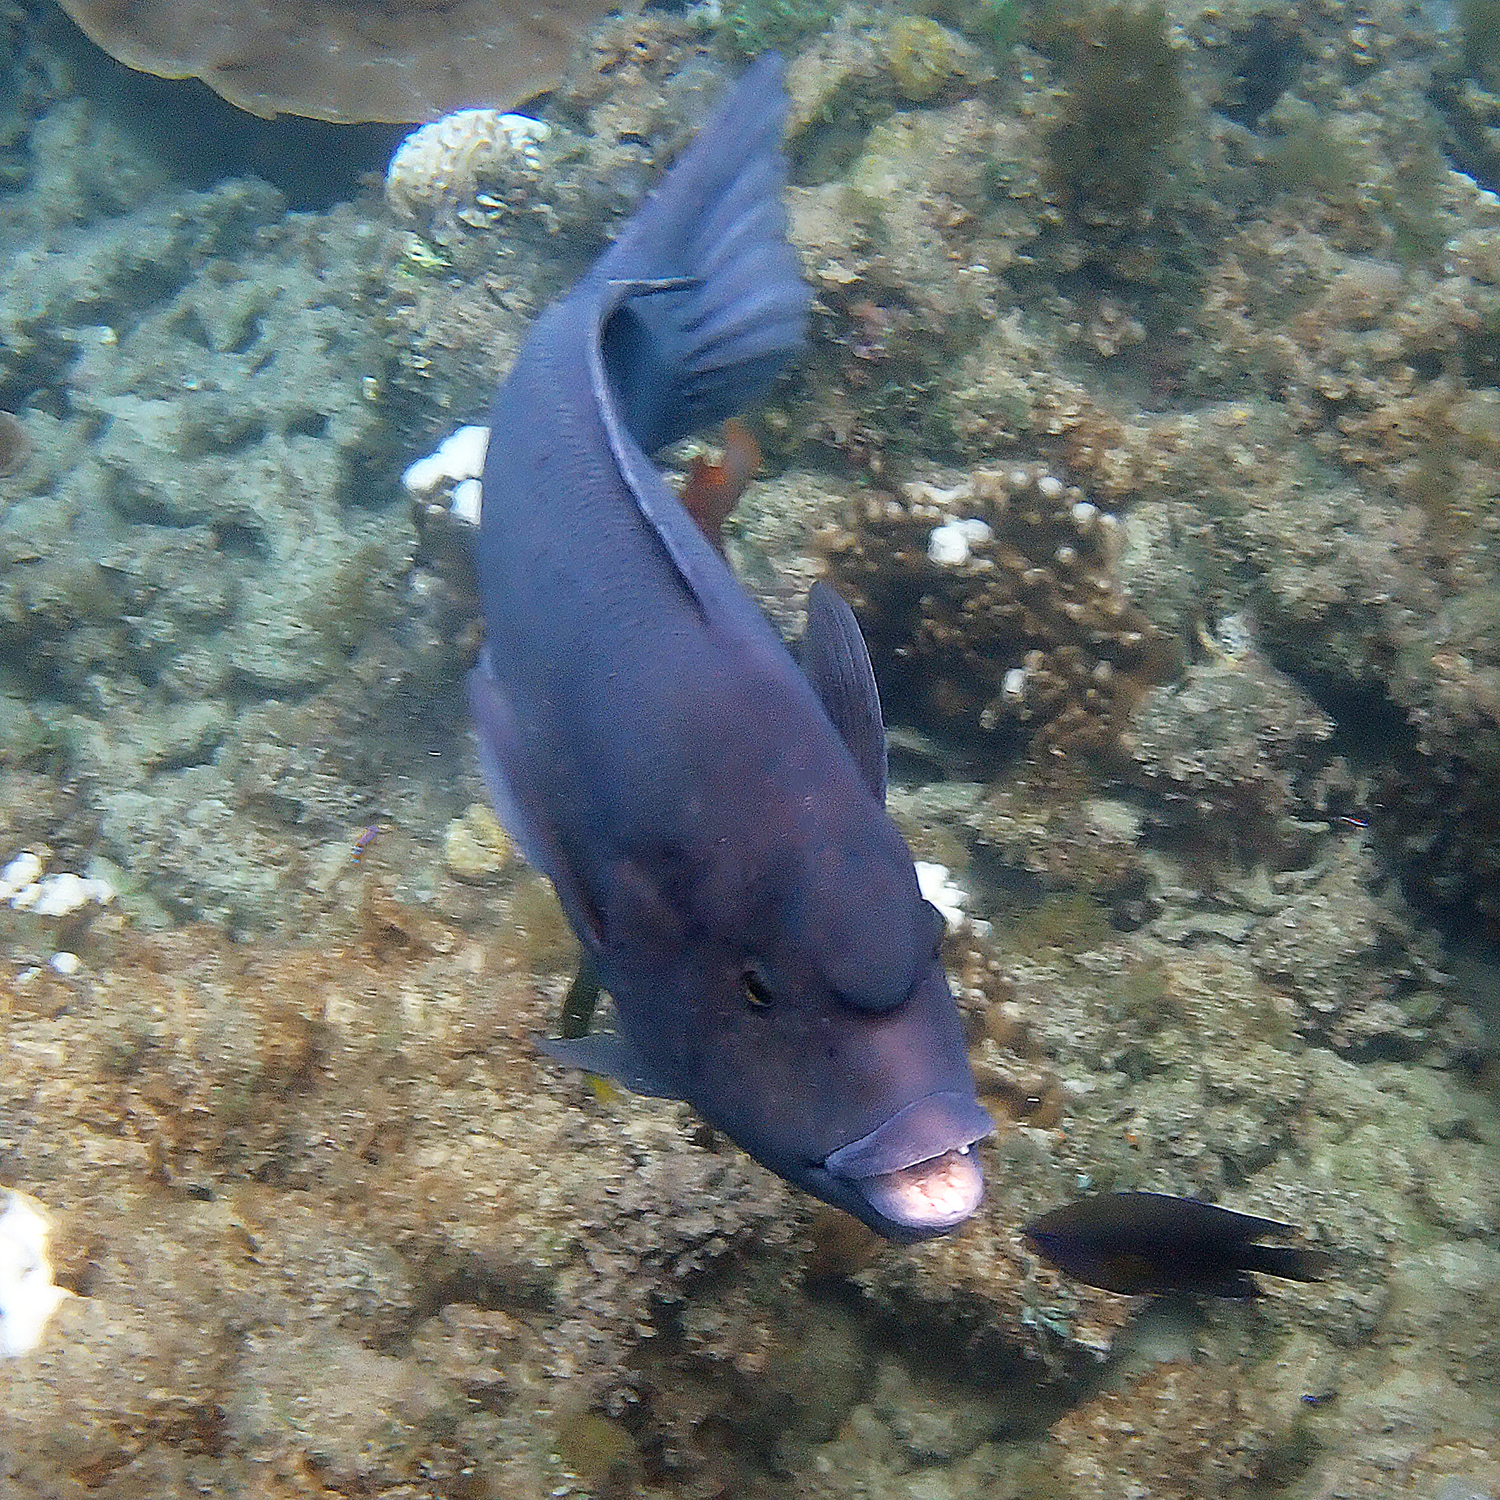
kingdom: Animalia
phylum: Chordata
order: Perciformes
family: Labridae
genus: Coris
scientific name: Coris bulbifrons
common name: Doubleheader
